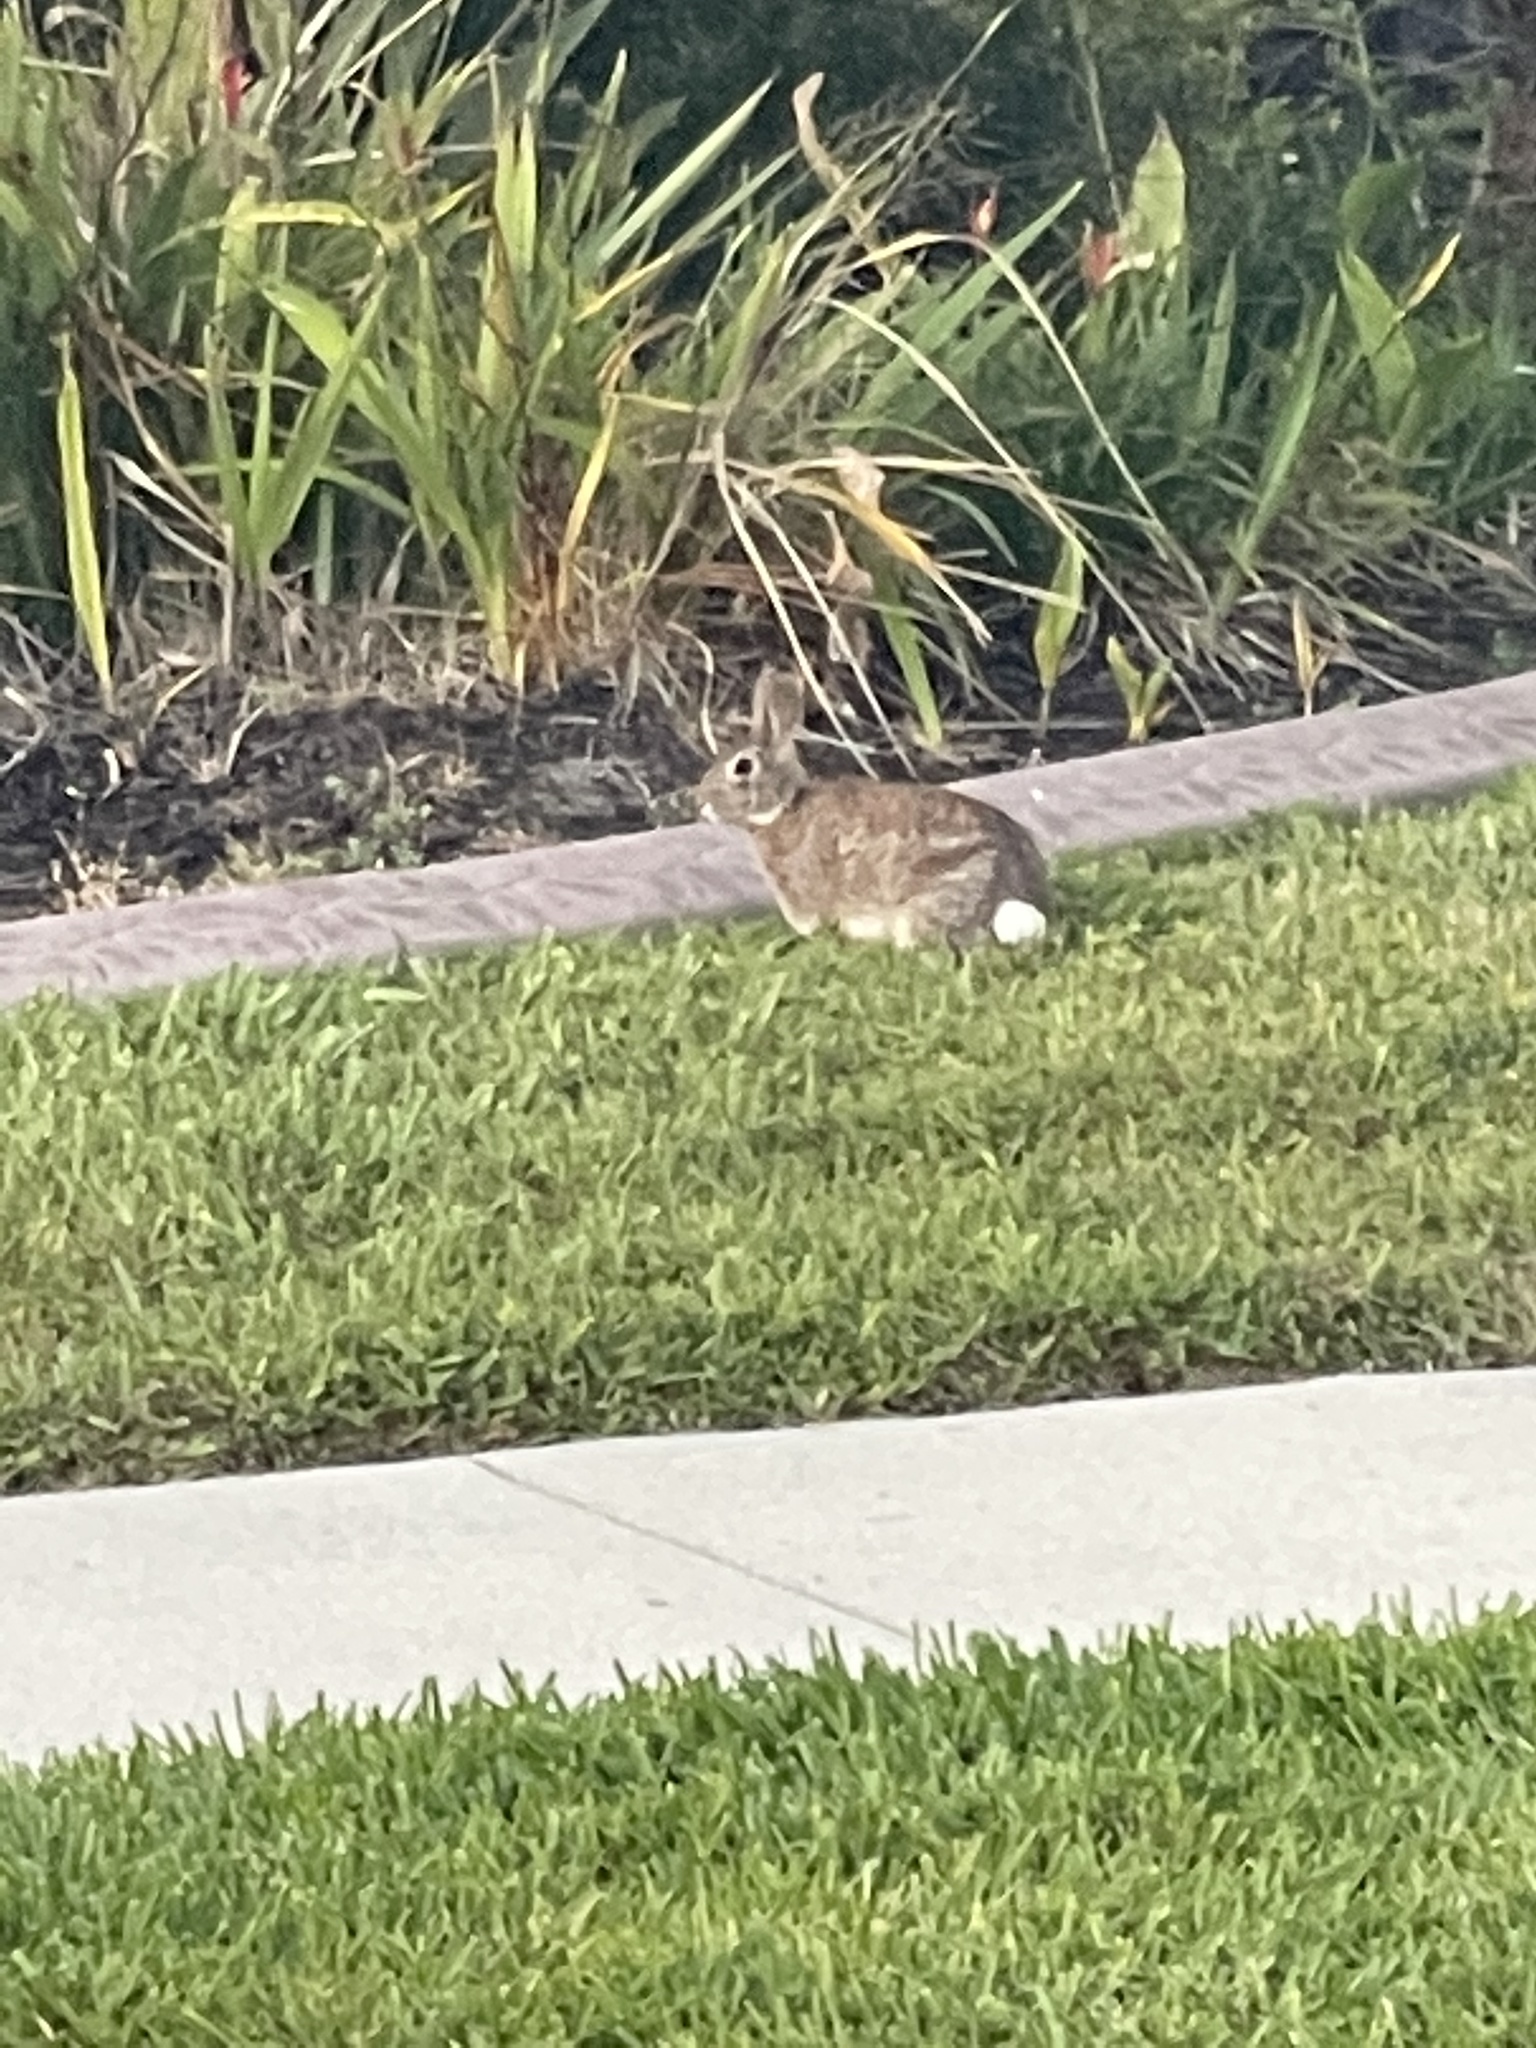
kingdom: Animalia
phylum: Chordata
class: Mammalia
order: Lagomorpha
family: Leporidae
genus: Sylvilagus
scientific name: Sylvilagus floridanus
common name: Eastern cottontail
